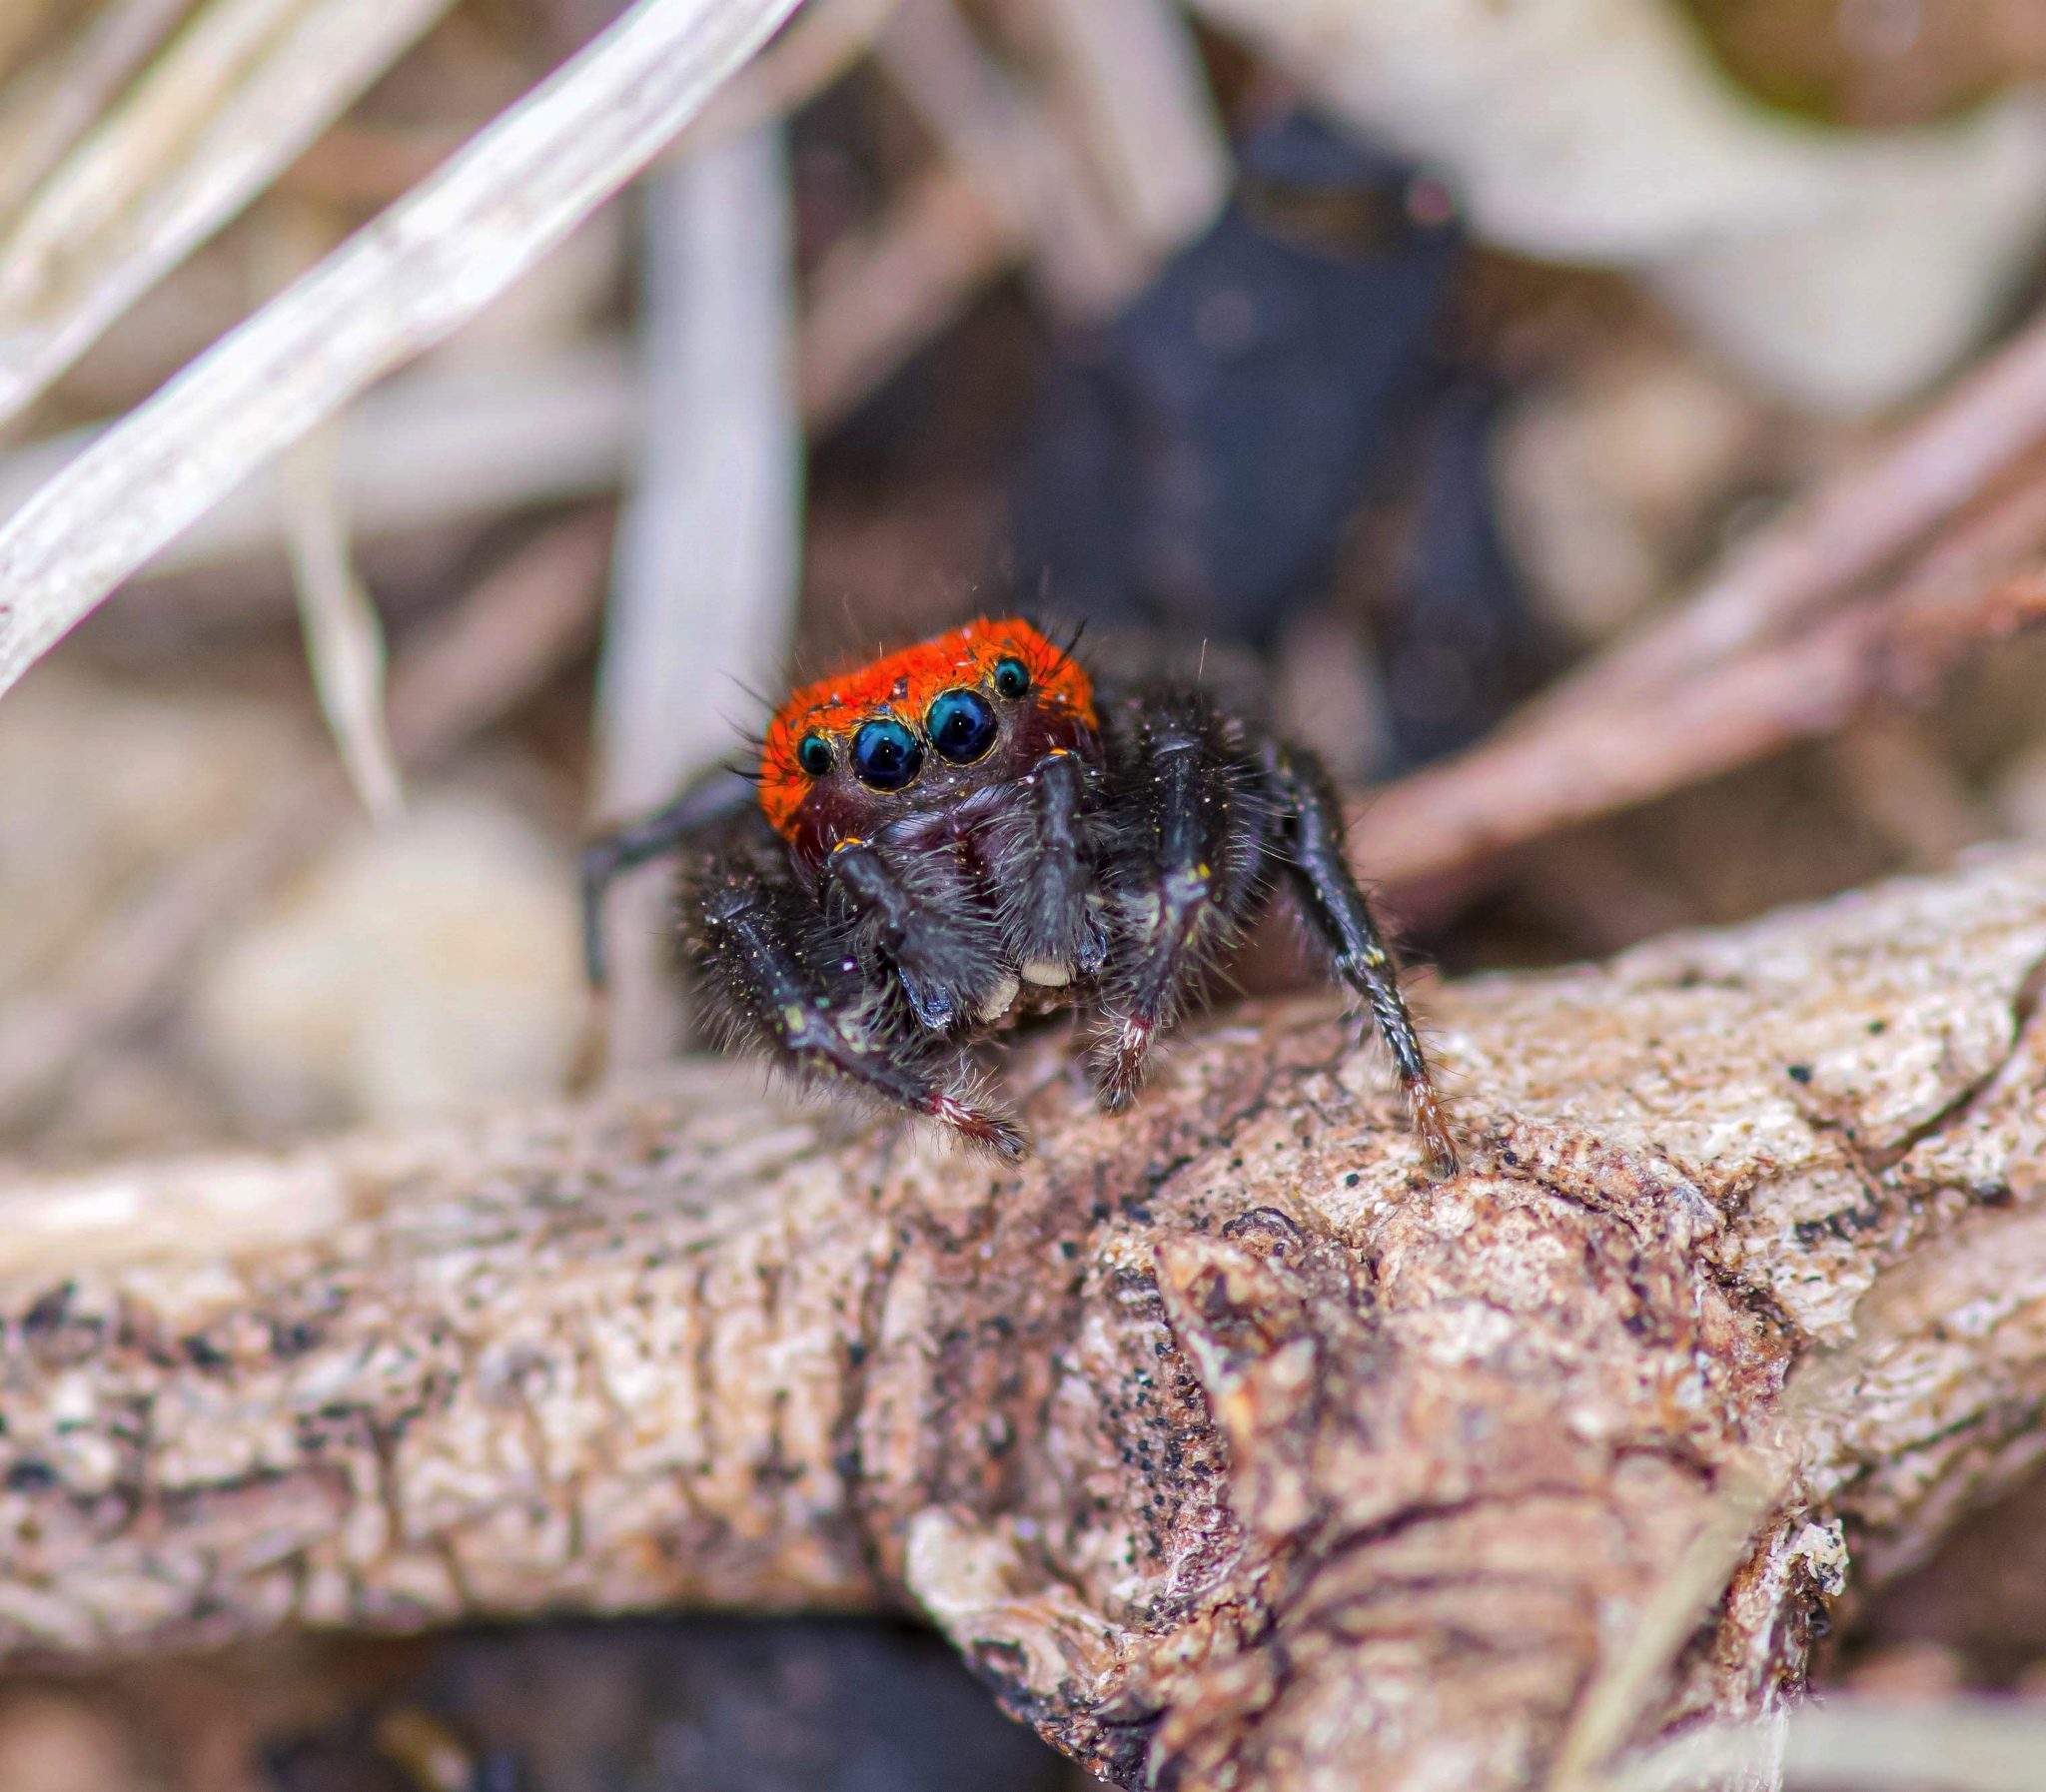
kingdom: Animalia
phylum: Arthropoda
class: Arachnida
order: Araneae
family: Salticidae
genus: Phidippus
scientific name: Phidippus cardinalis
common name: Cardinal jumper
